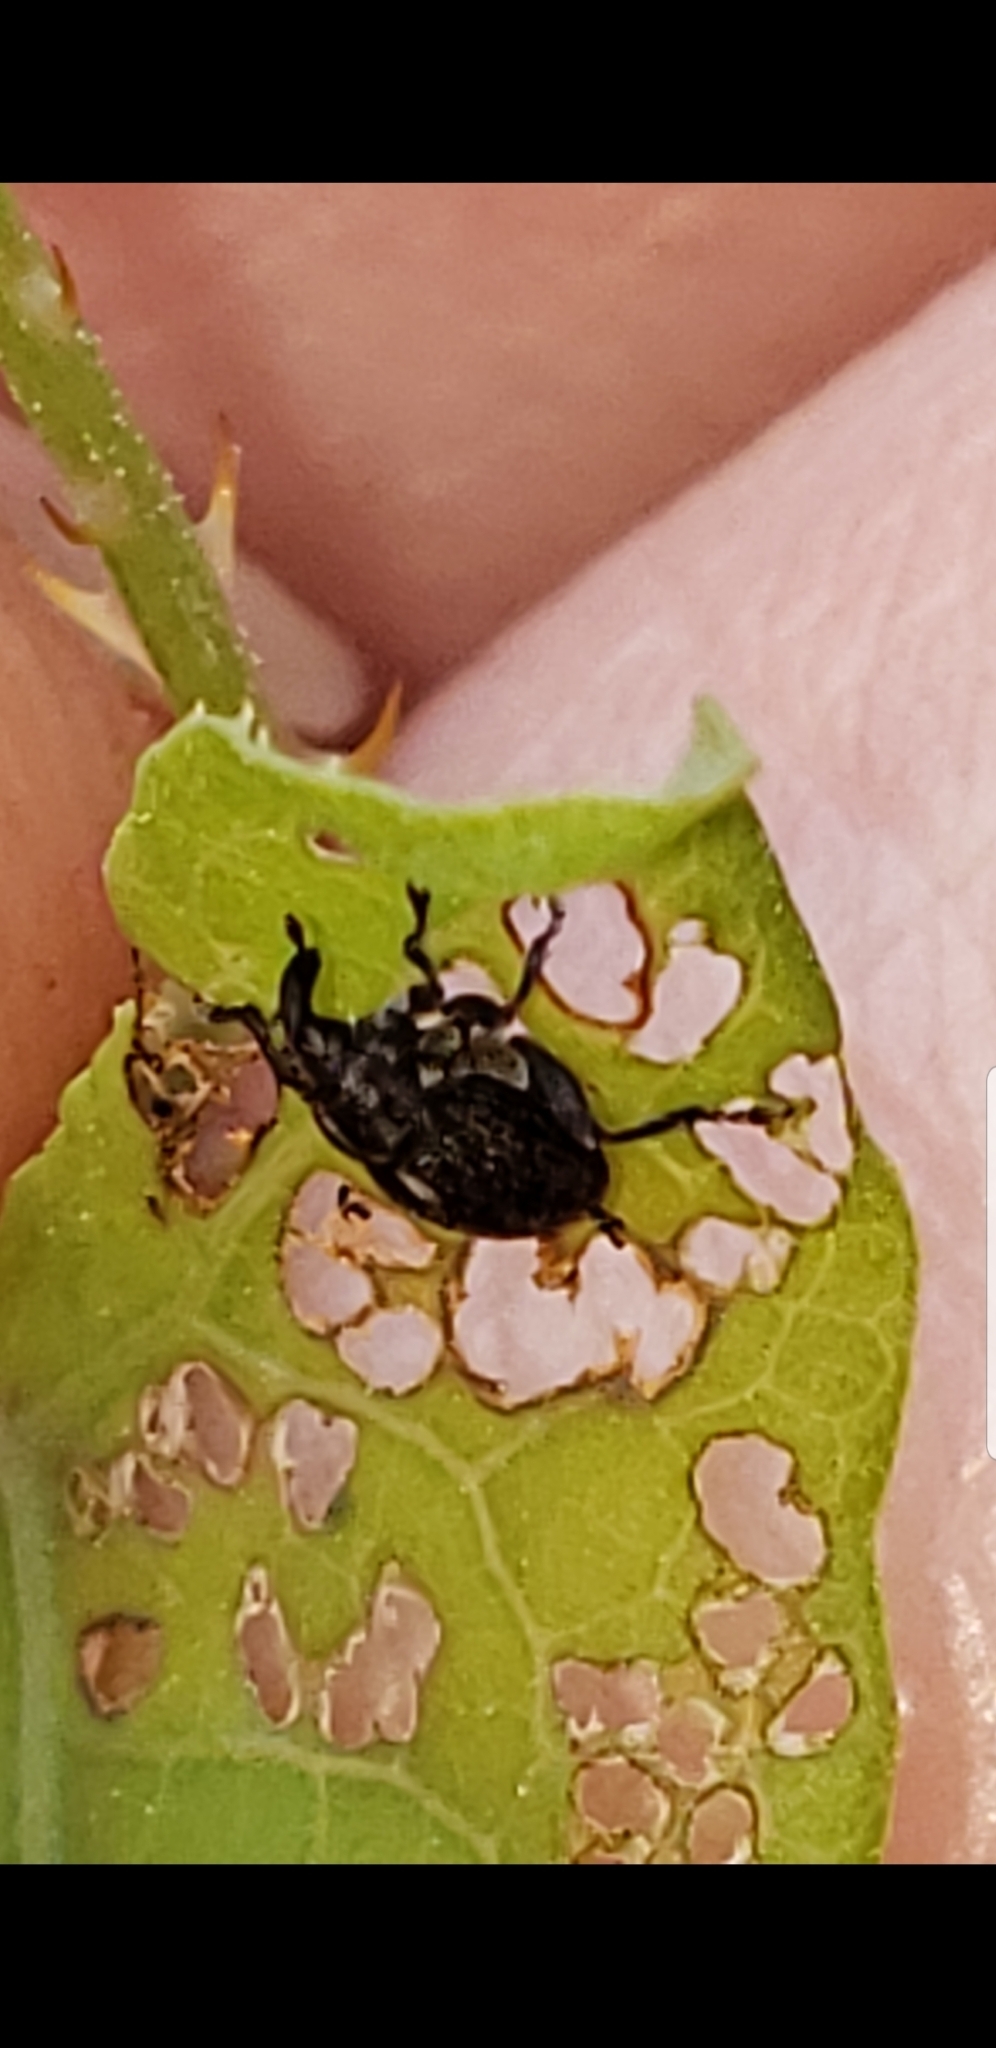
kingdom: Animalia
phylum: Arthropoda
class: Insecta
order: Coleoptera
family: Curculionidae
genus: Rhinoncomimus
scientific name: Rhinoncomimus latipes
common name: Chinese weevil
